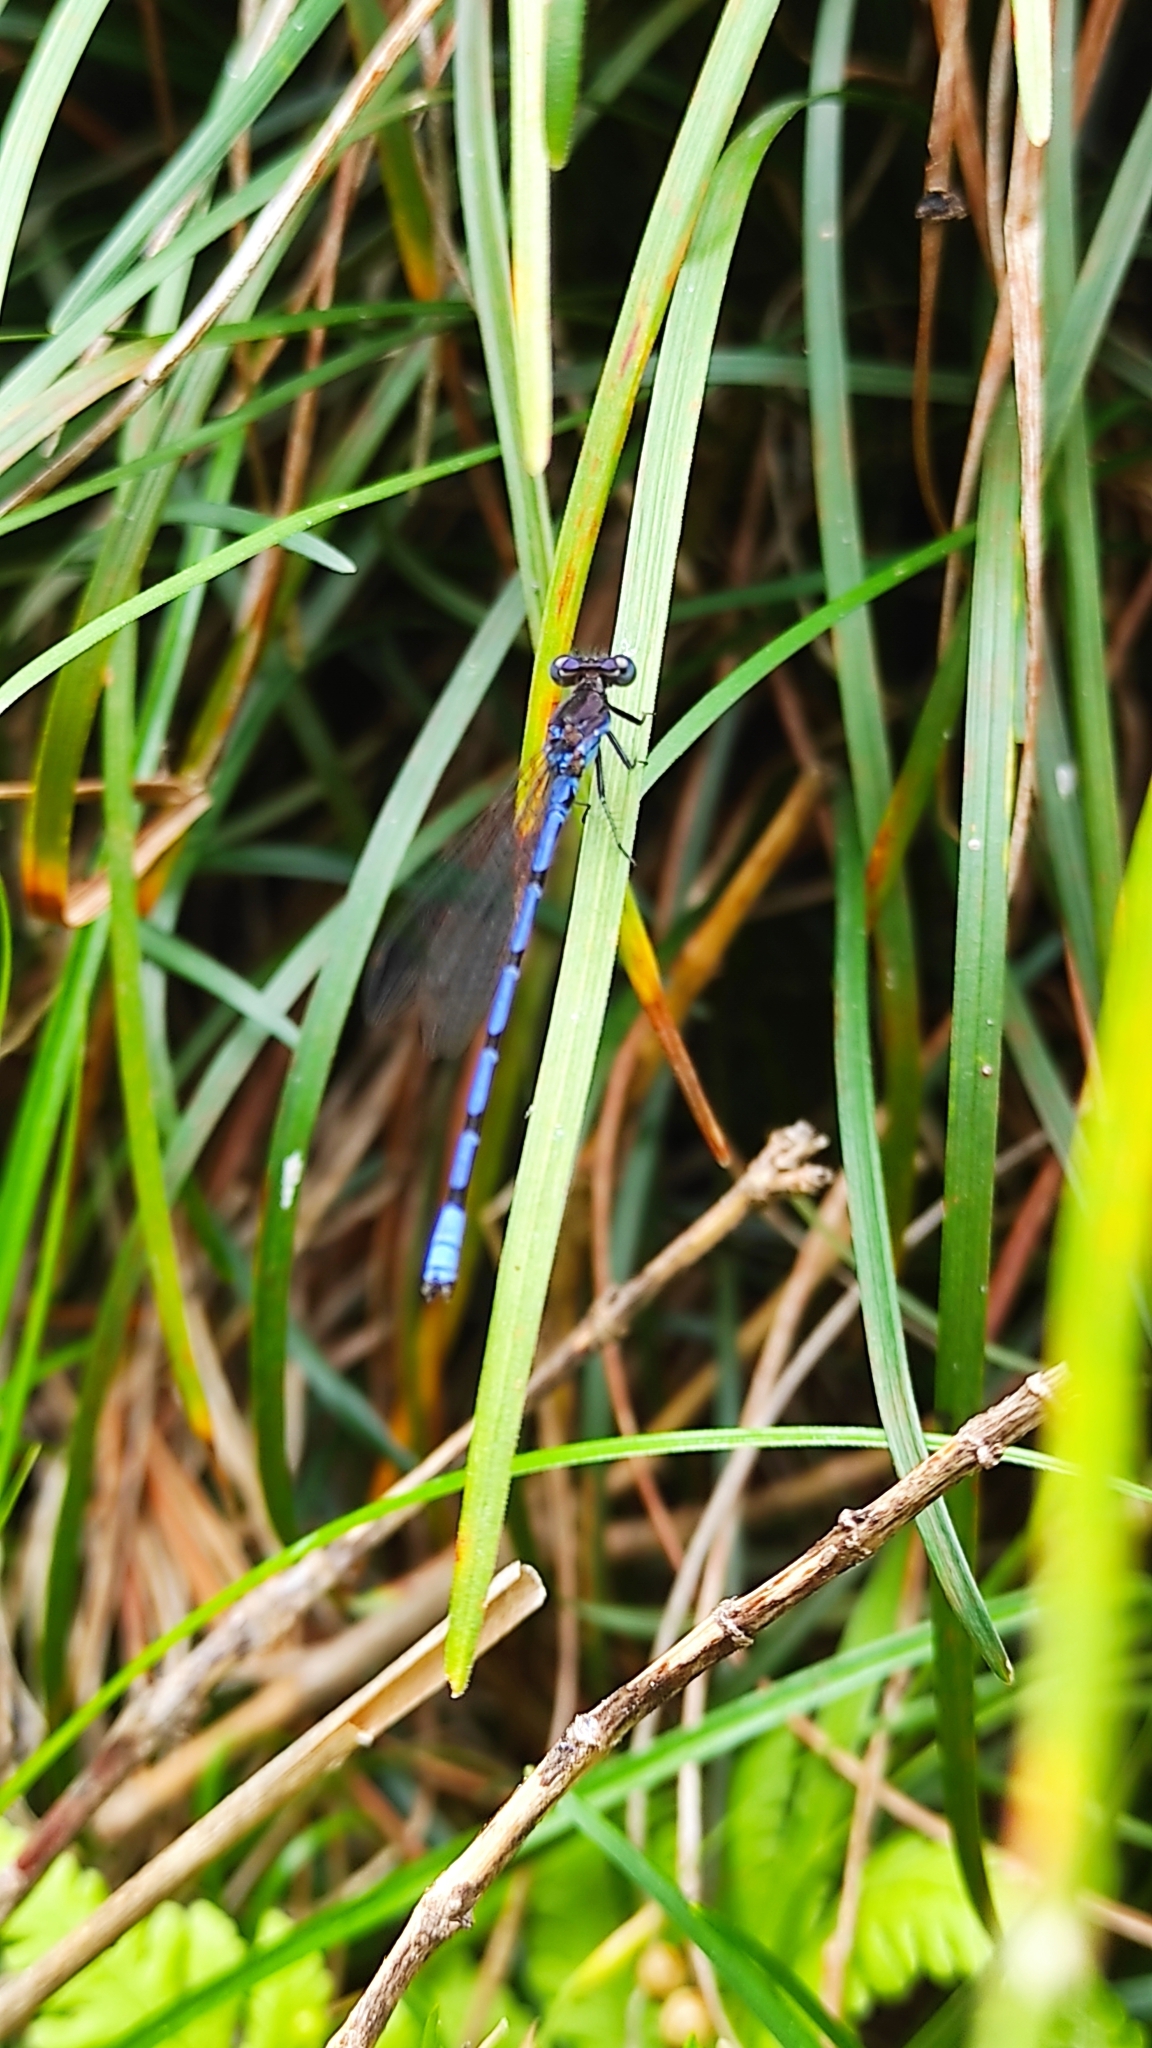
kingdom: Animalia
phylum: Arthropoda
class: Insecta
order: Odonata
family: Coenagrionidae
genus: Argia
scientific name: Argia elongata
